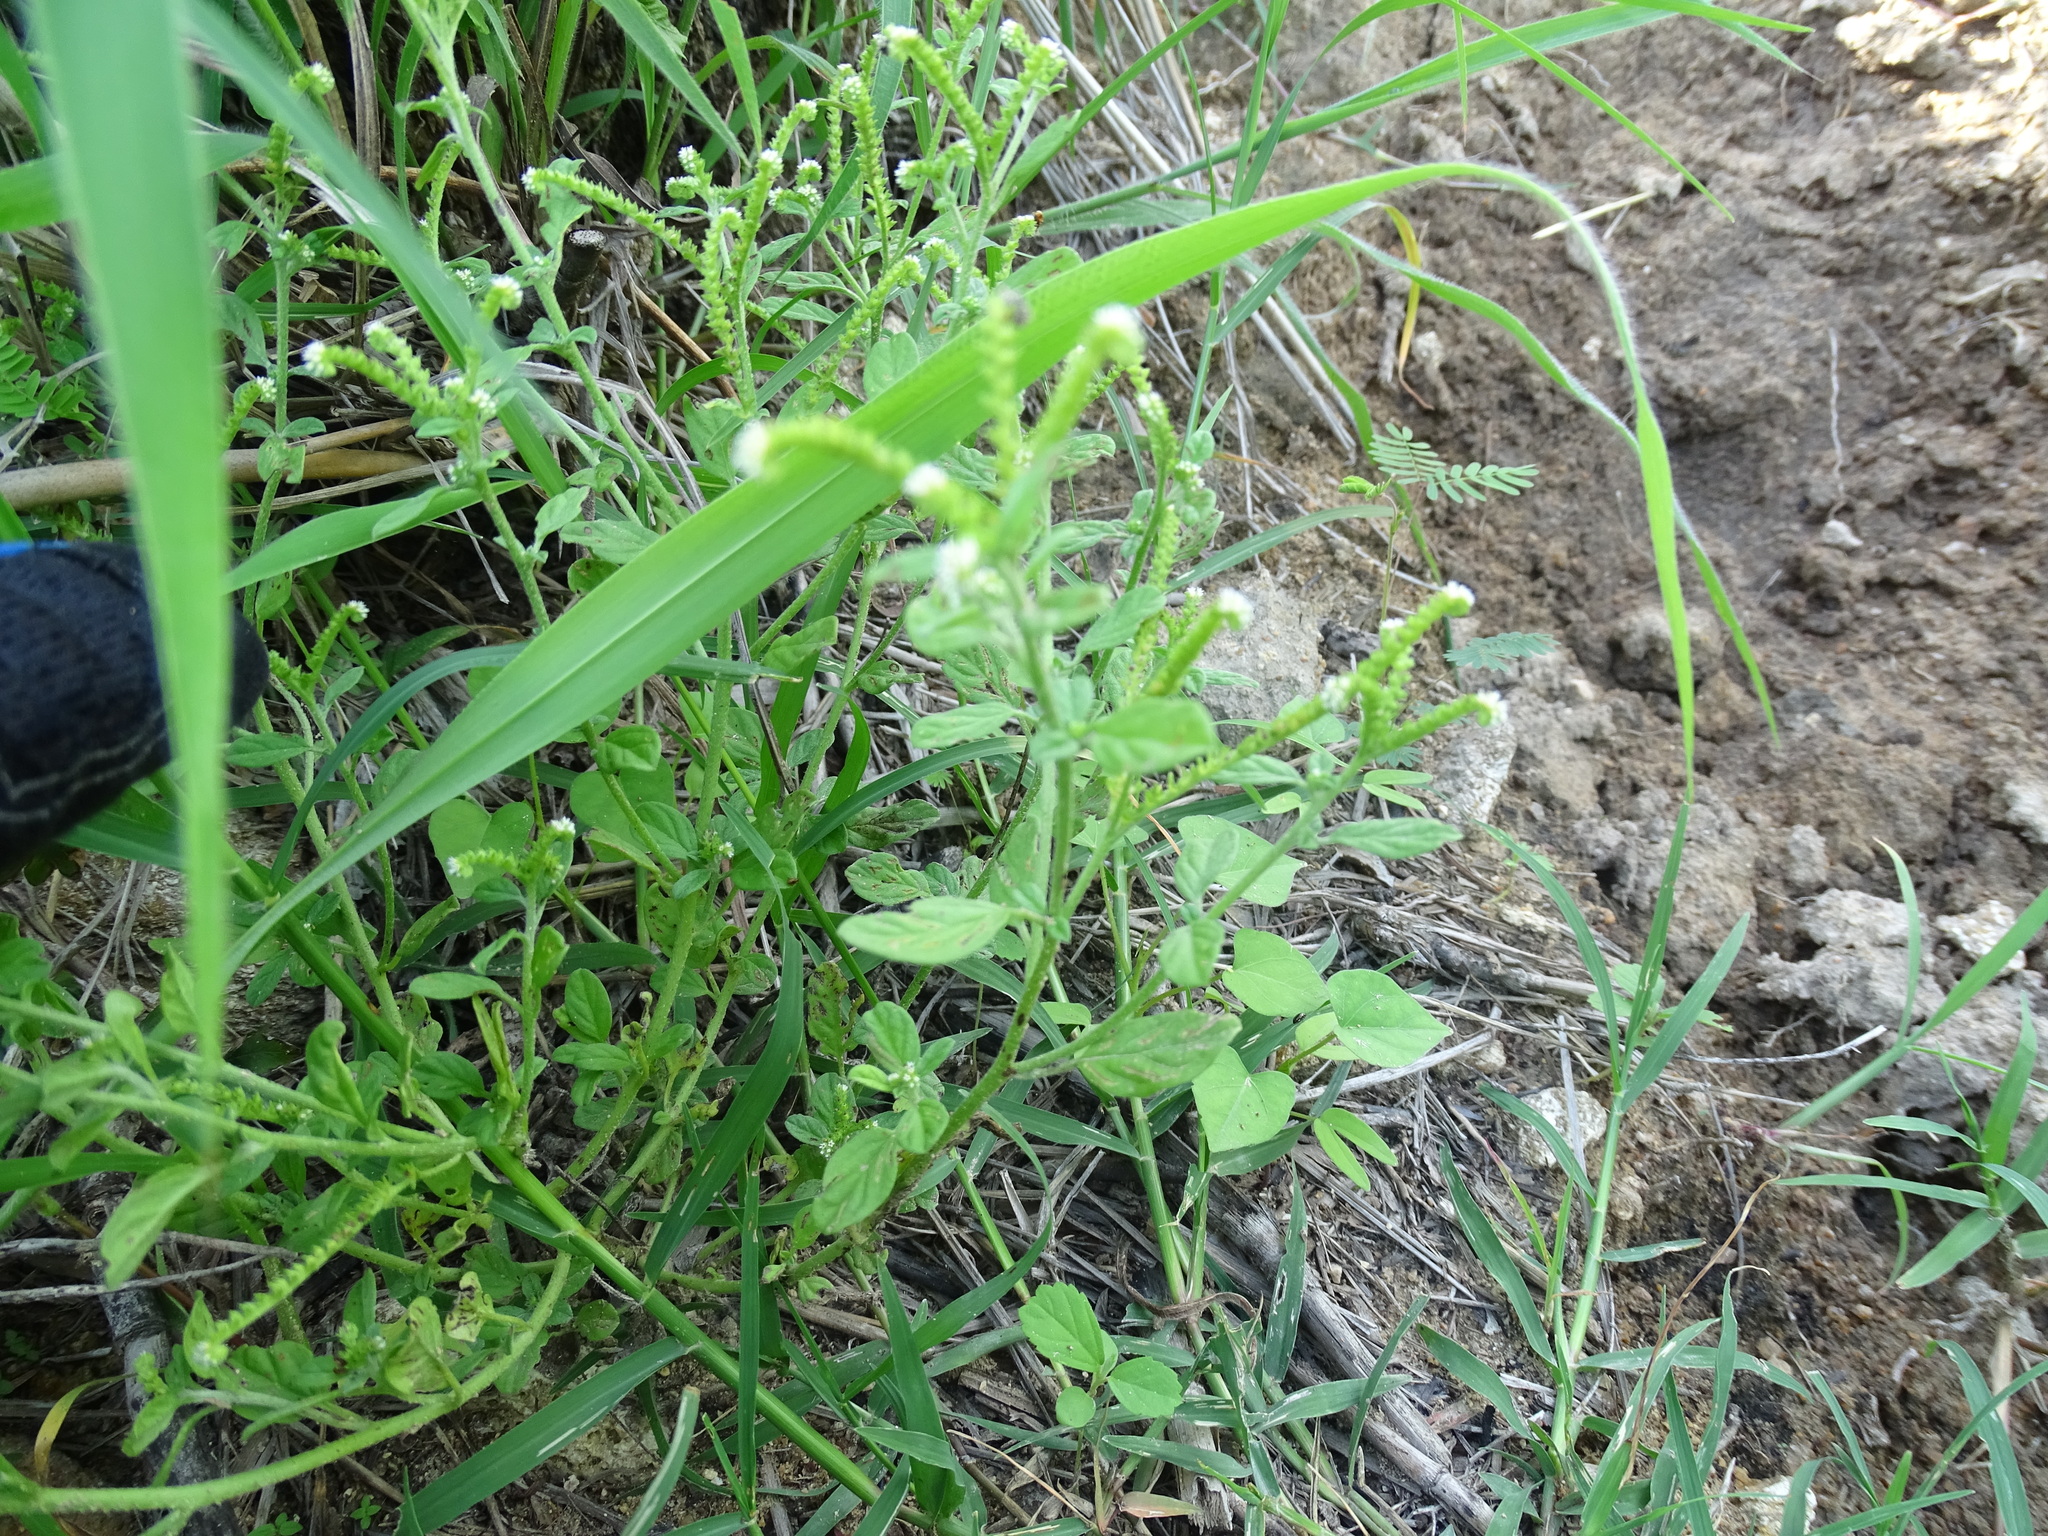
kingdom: Plantae
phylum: Tracheophyta
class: Magnoliopsida
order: Boraginales
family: Heliotropiaceae
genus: Euploca
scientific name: Euploca procumbens
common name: Fourspike heliotrope
